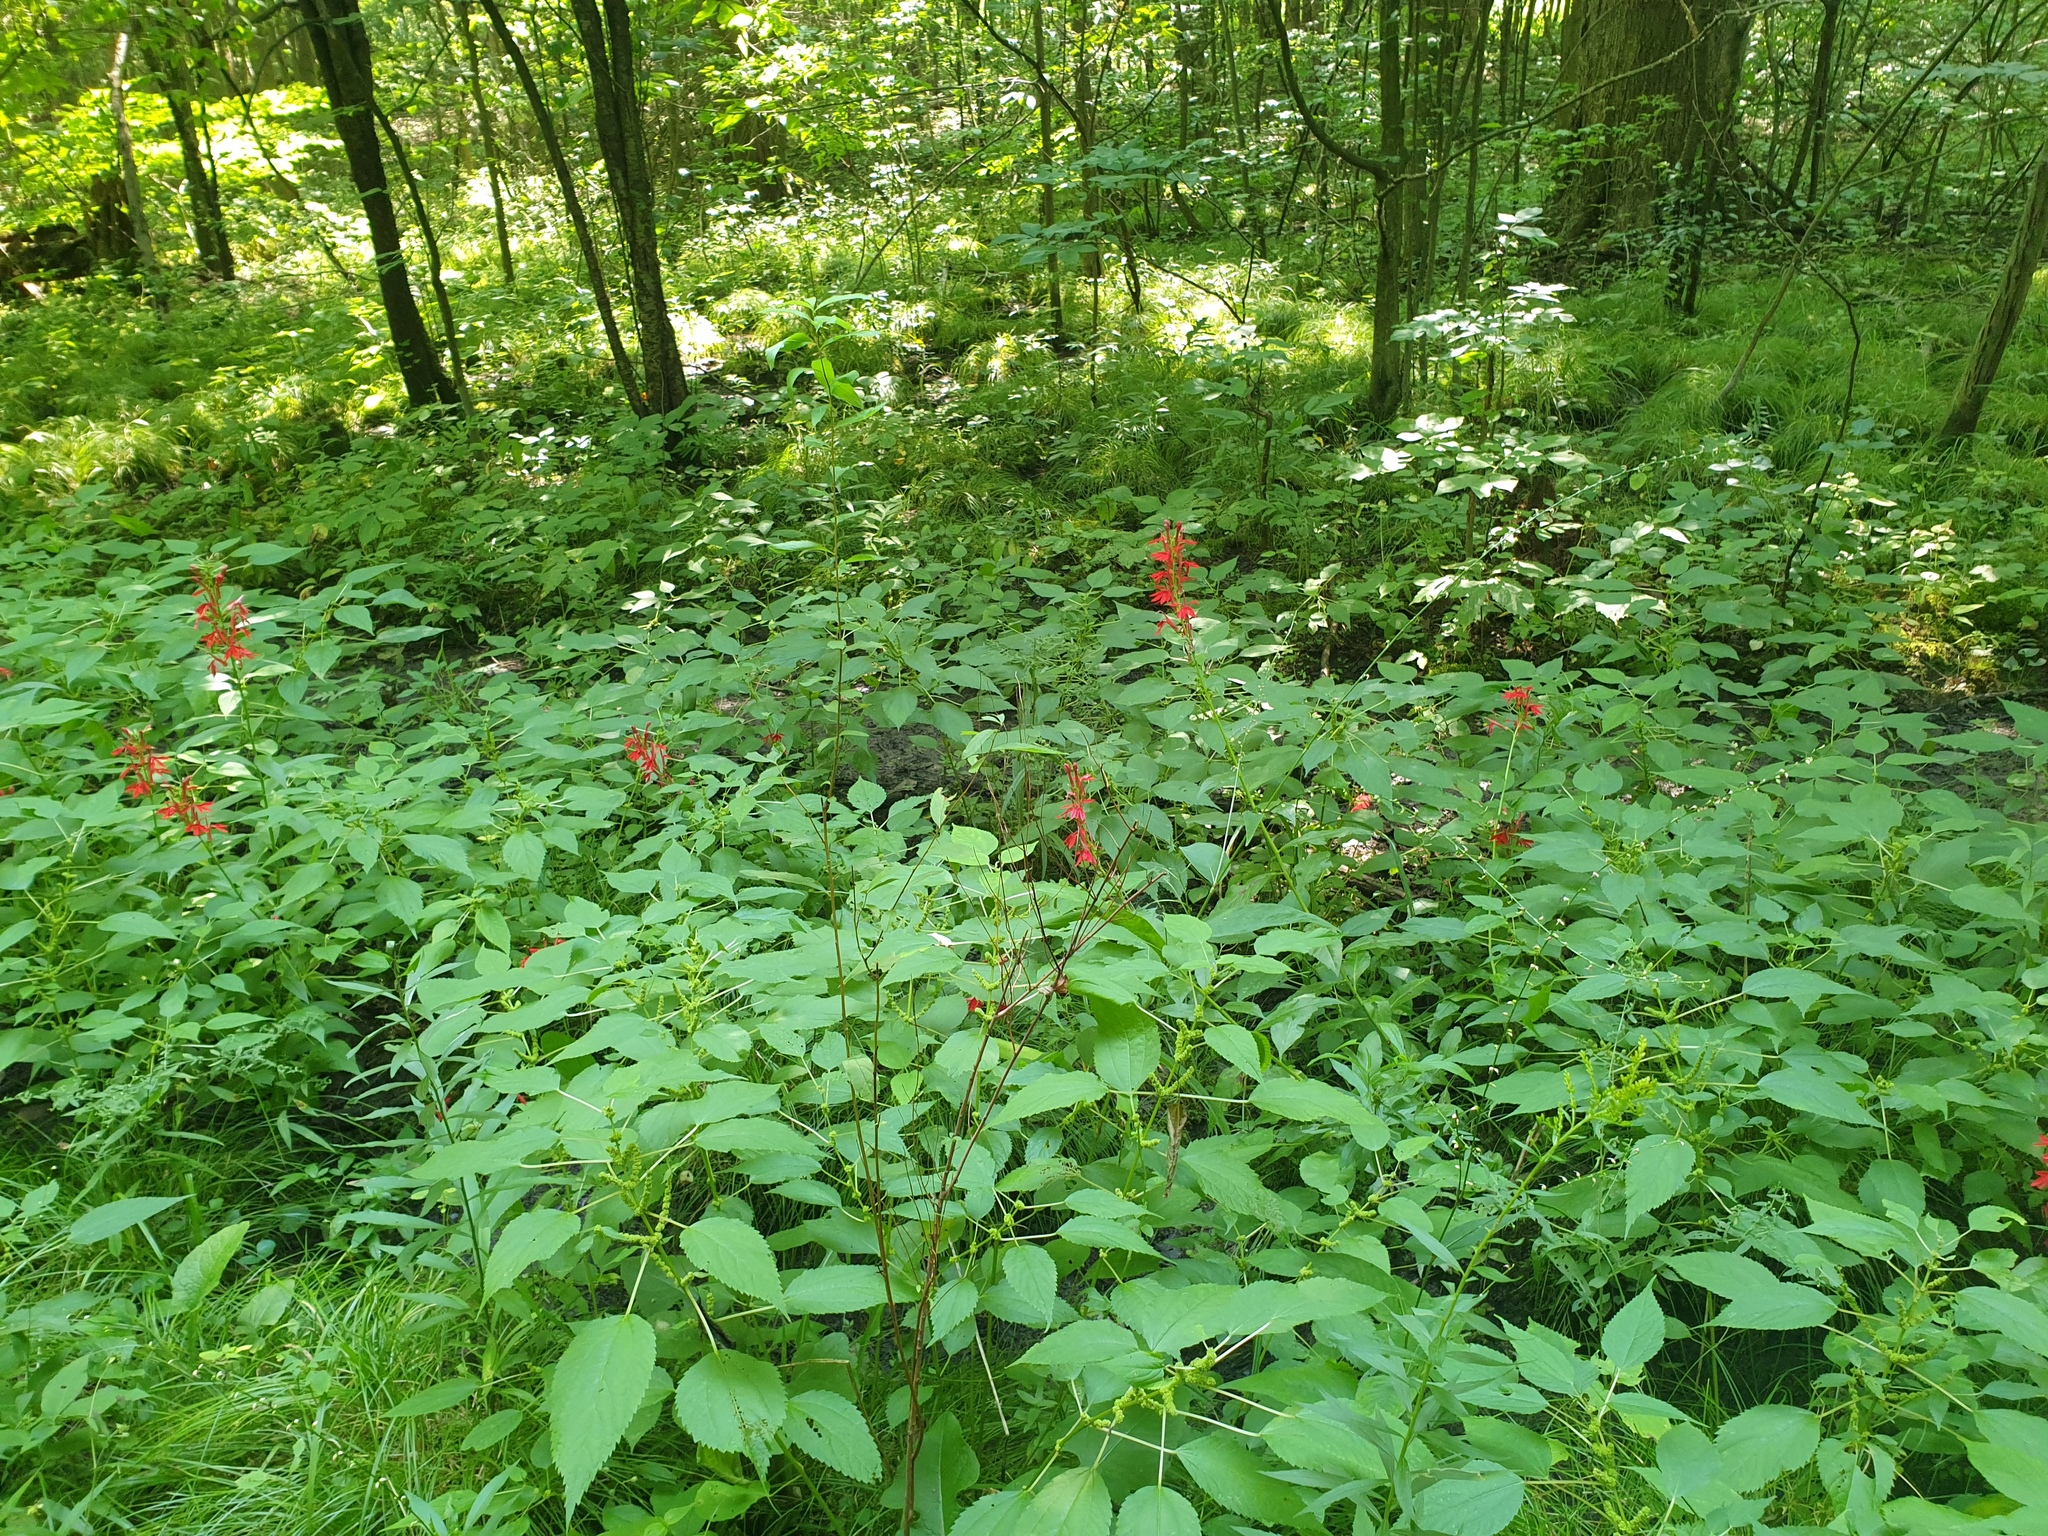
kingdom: Plantae
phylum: Tracheophyta
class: Magnoliopsida
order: Asterales
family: Campanulaceae
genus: Lobelia
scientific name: Lobelia cardinalis
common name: Cardinal flower
